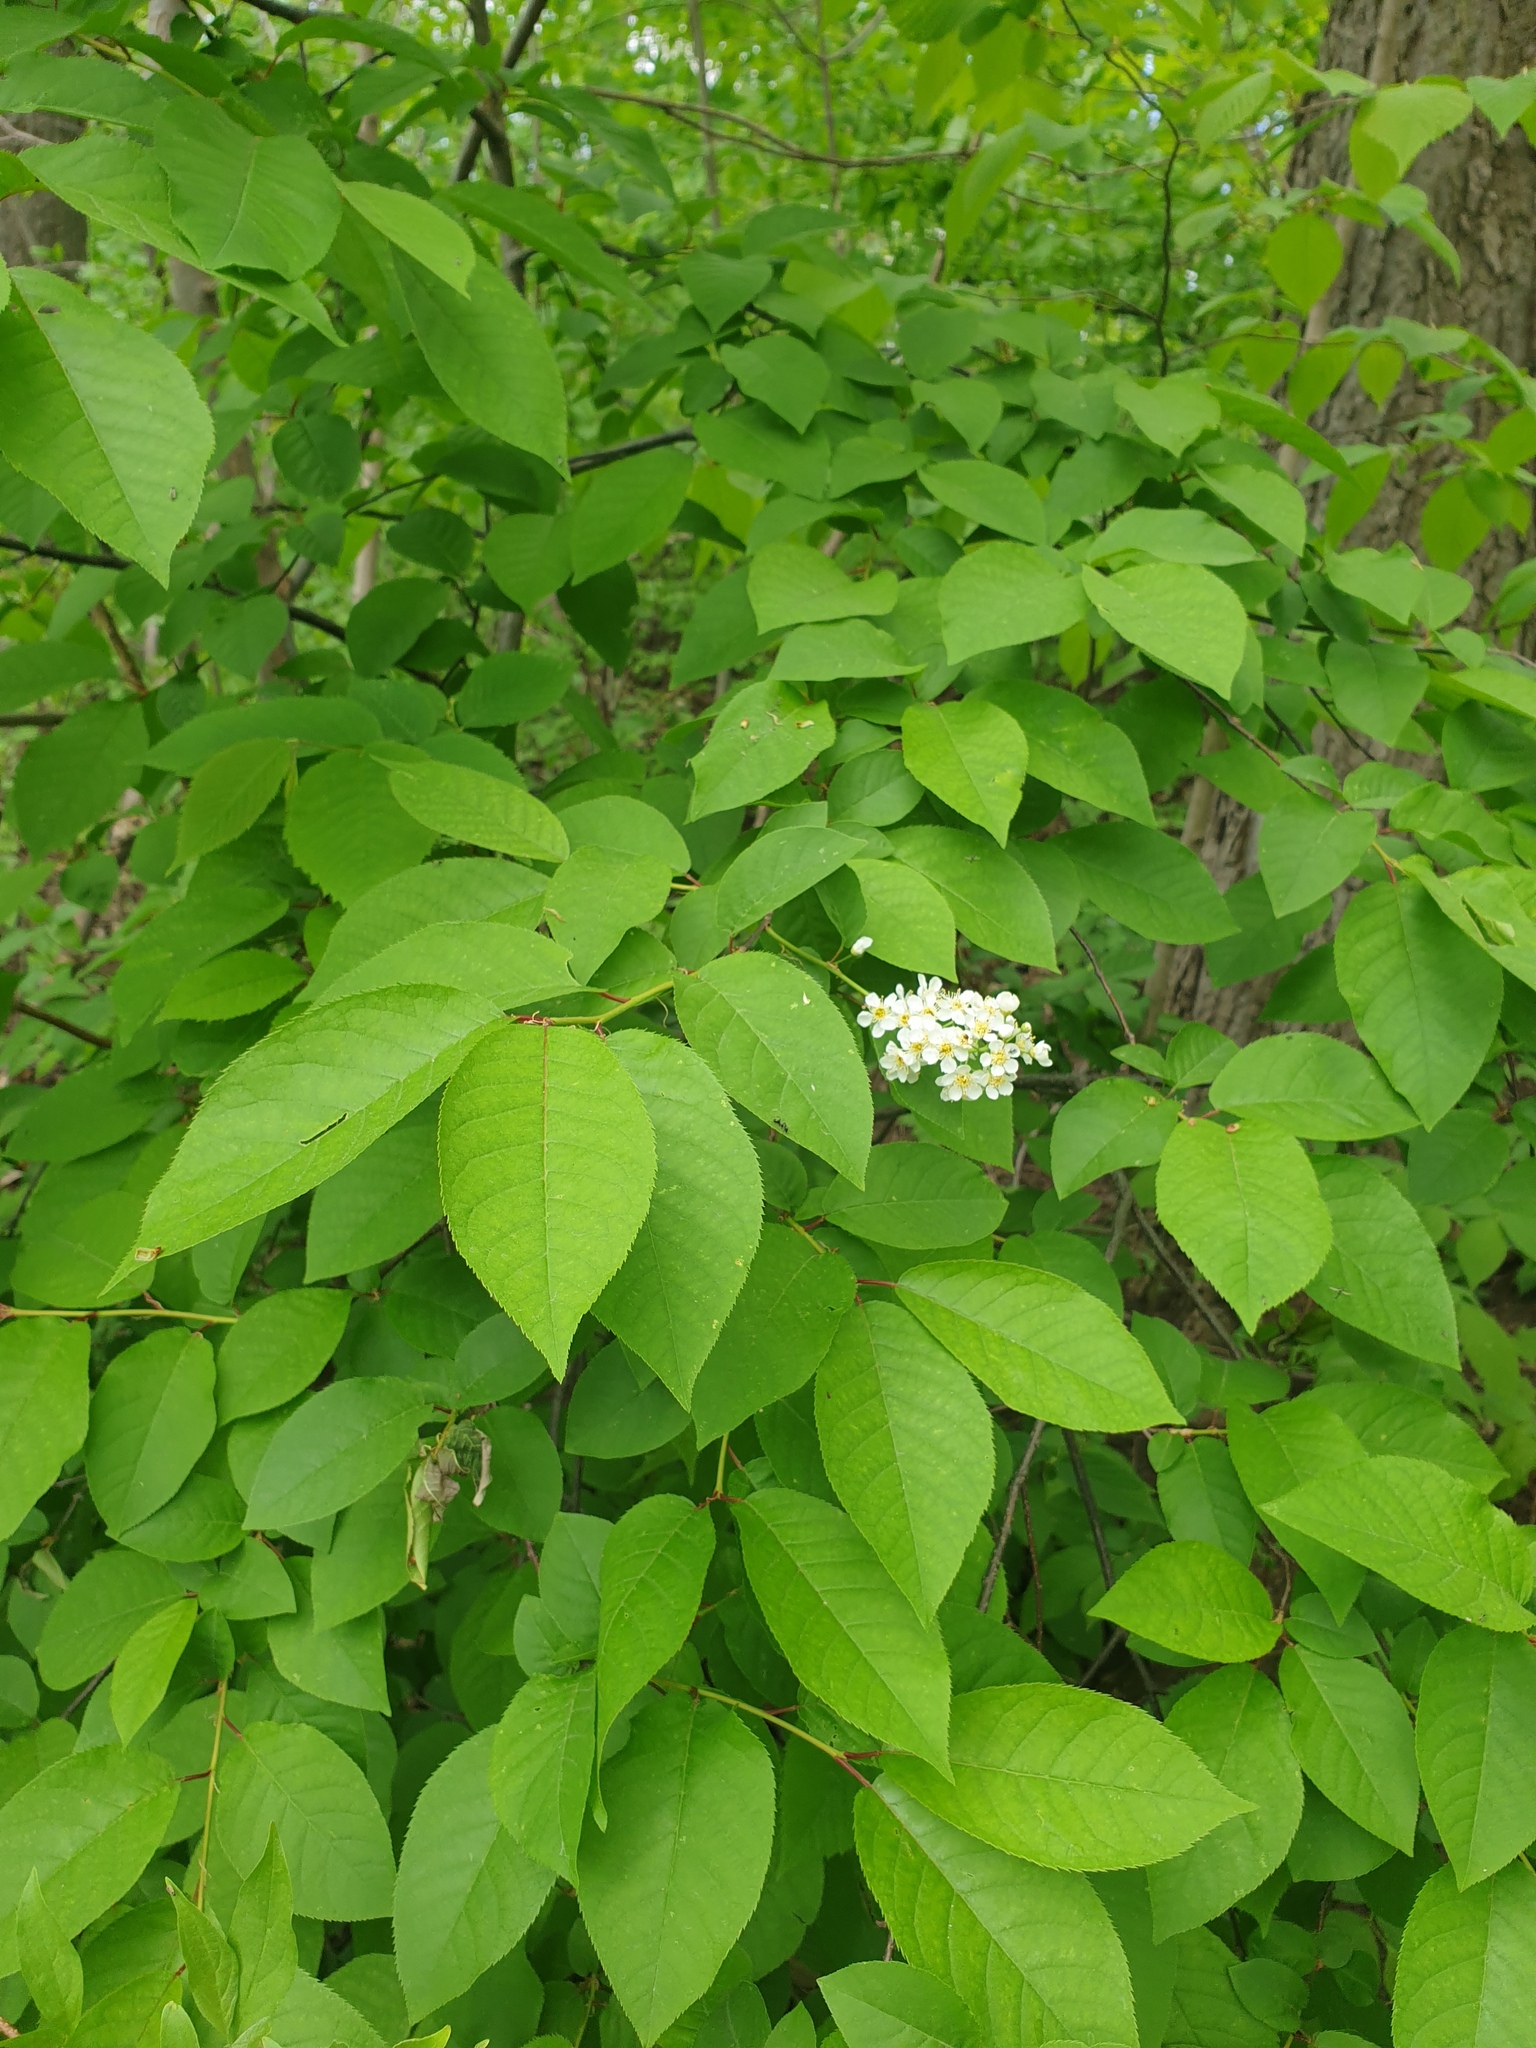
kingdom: Plantae
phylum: Tracheophyta
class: Magnoliopsida
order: Rosales
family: Rosaceae
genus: Prunus
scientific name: Prunus virginiana
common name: Chokecherry
